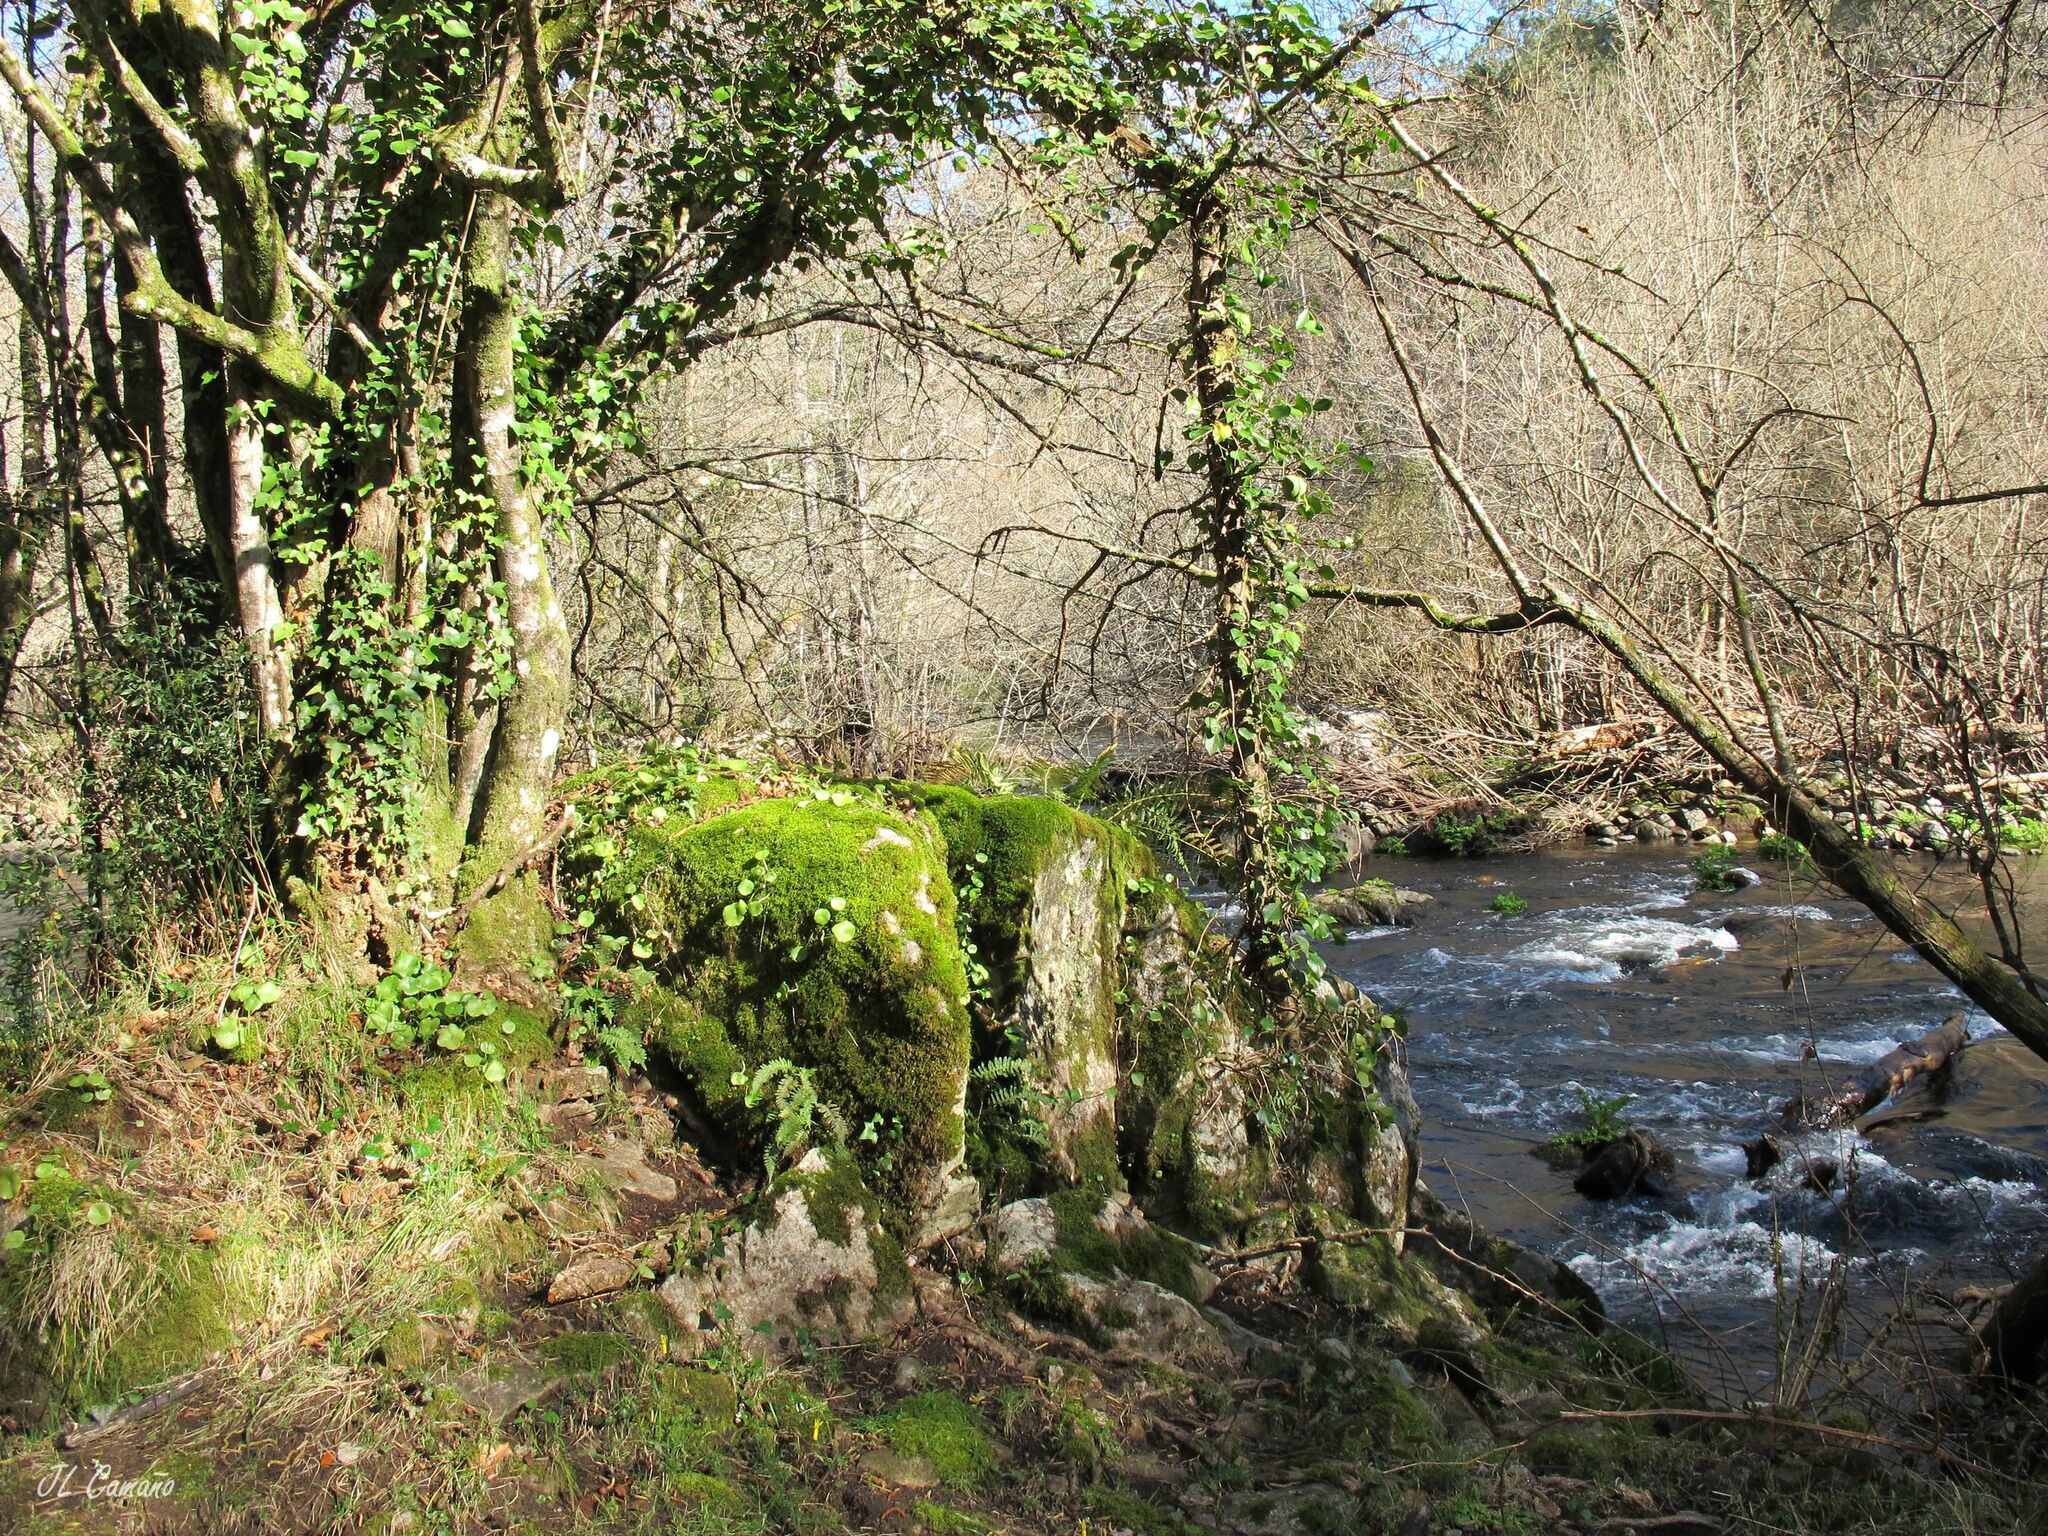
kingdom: Plantae
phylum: Bryophyta
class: Bryopsida
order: Hypnales
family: Lembophyllaceae
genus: Nogopterium
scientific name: Nogopterium gracile
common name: Bird's-foot wing-moss
